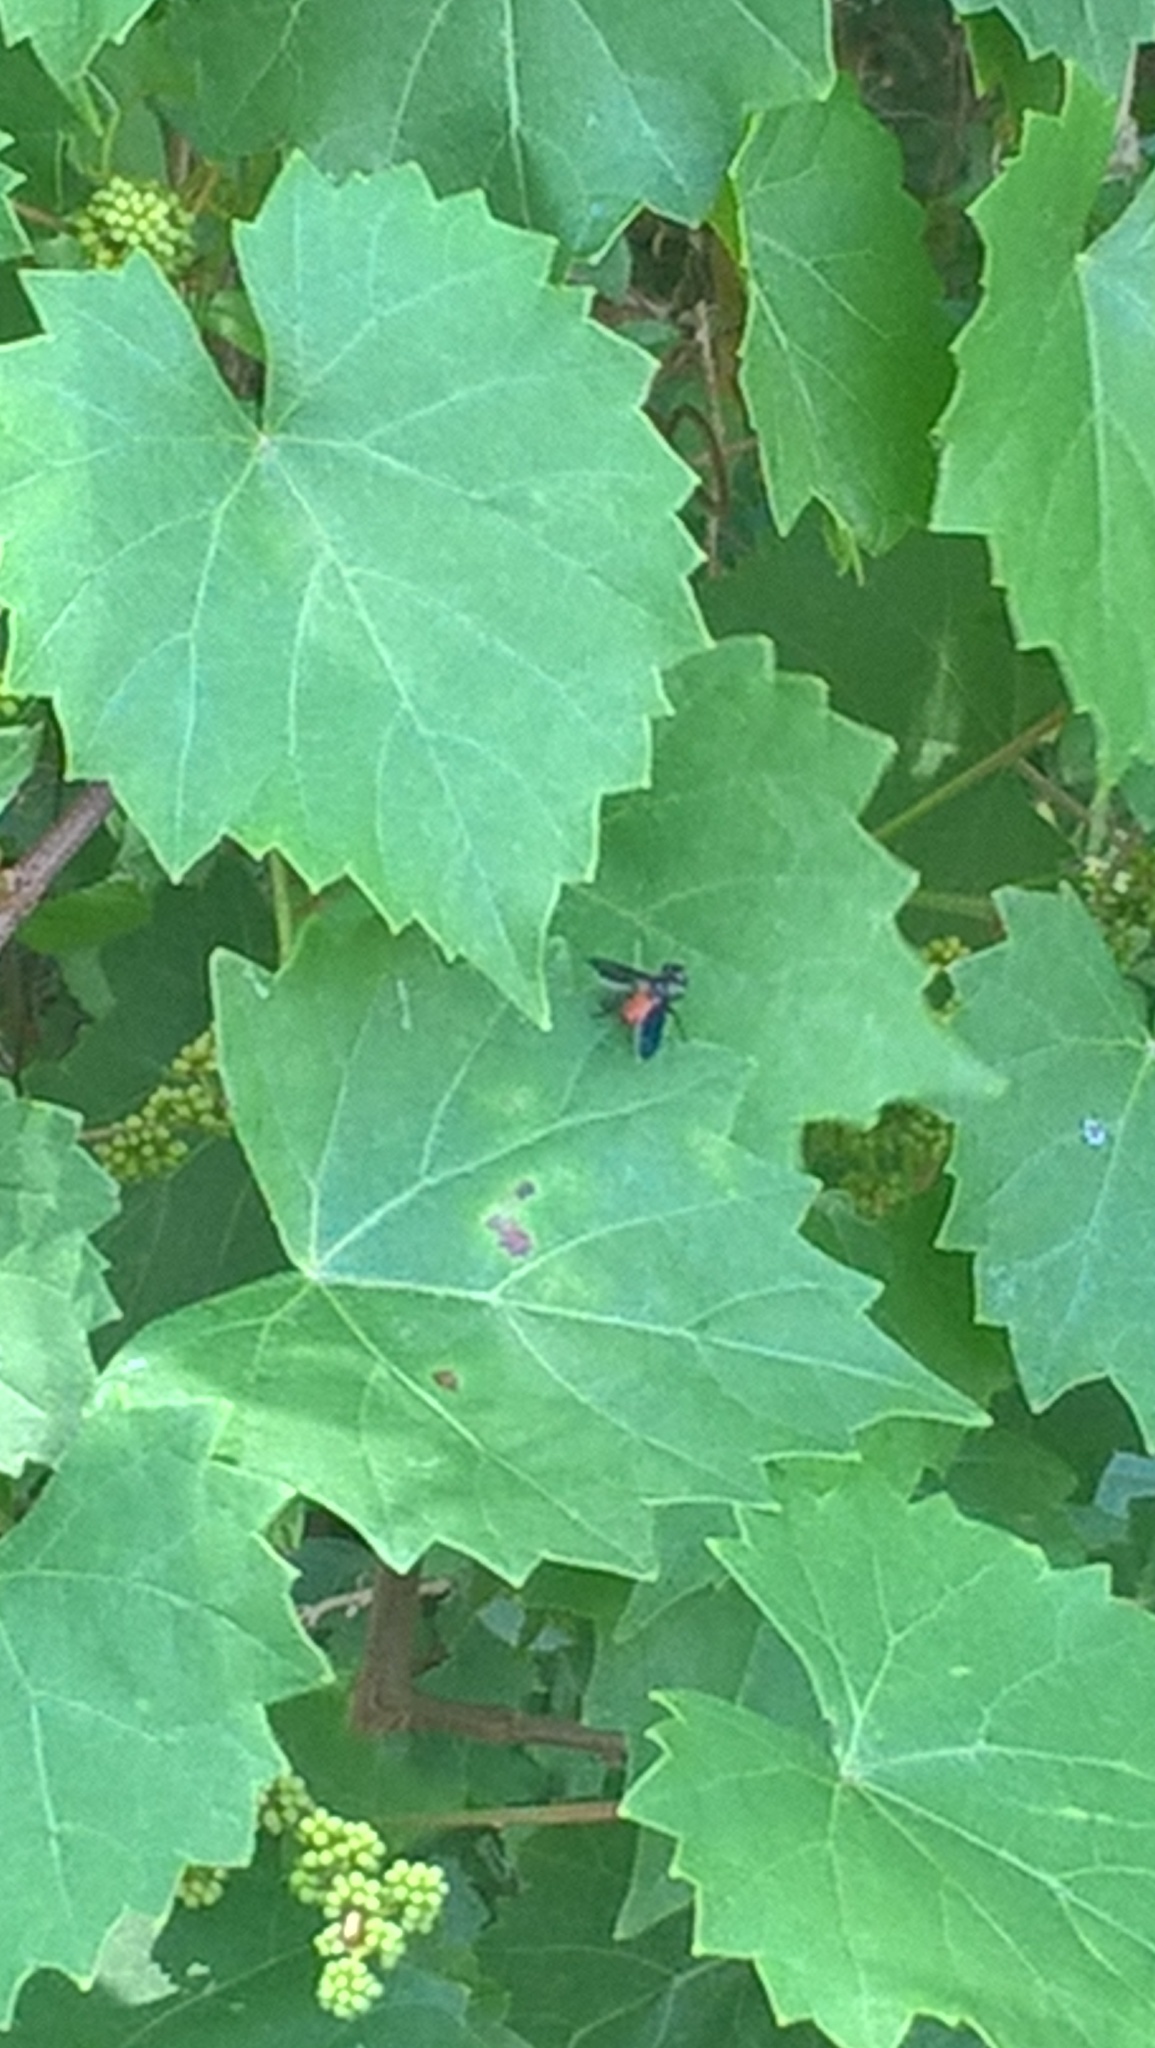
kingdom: Plantae
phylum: Tracheophyta
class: Magnoliopsida
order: Vitales
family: Vitaceae
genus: Vitis
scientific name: Vitis rotundifolia
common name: Muscadine grape
